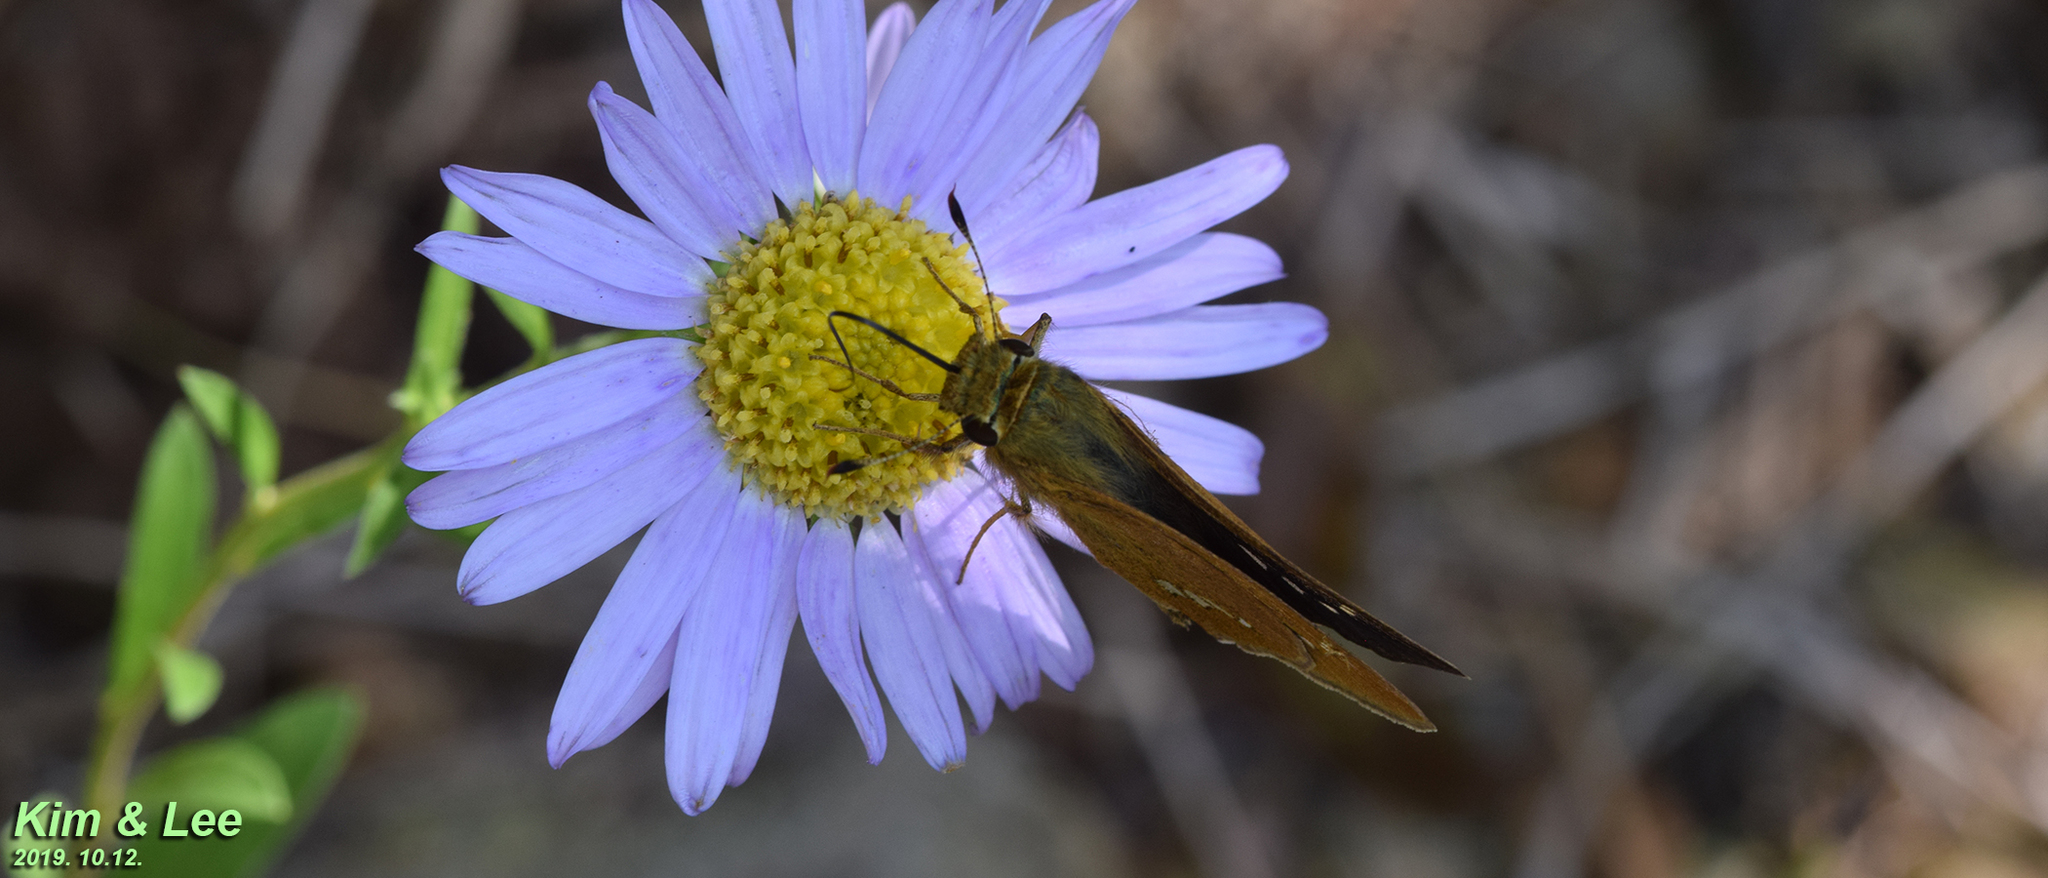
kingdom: Animalia
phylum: Arthropoda
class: Insecta
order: Lepidoptera
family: Hesperiidae
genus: Parnara
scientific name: Parnara guttatus
